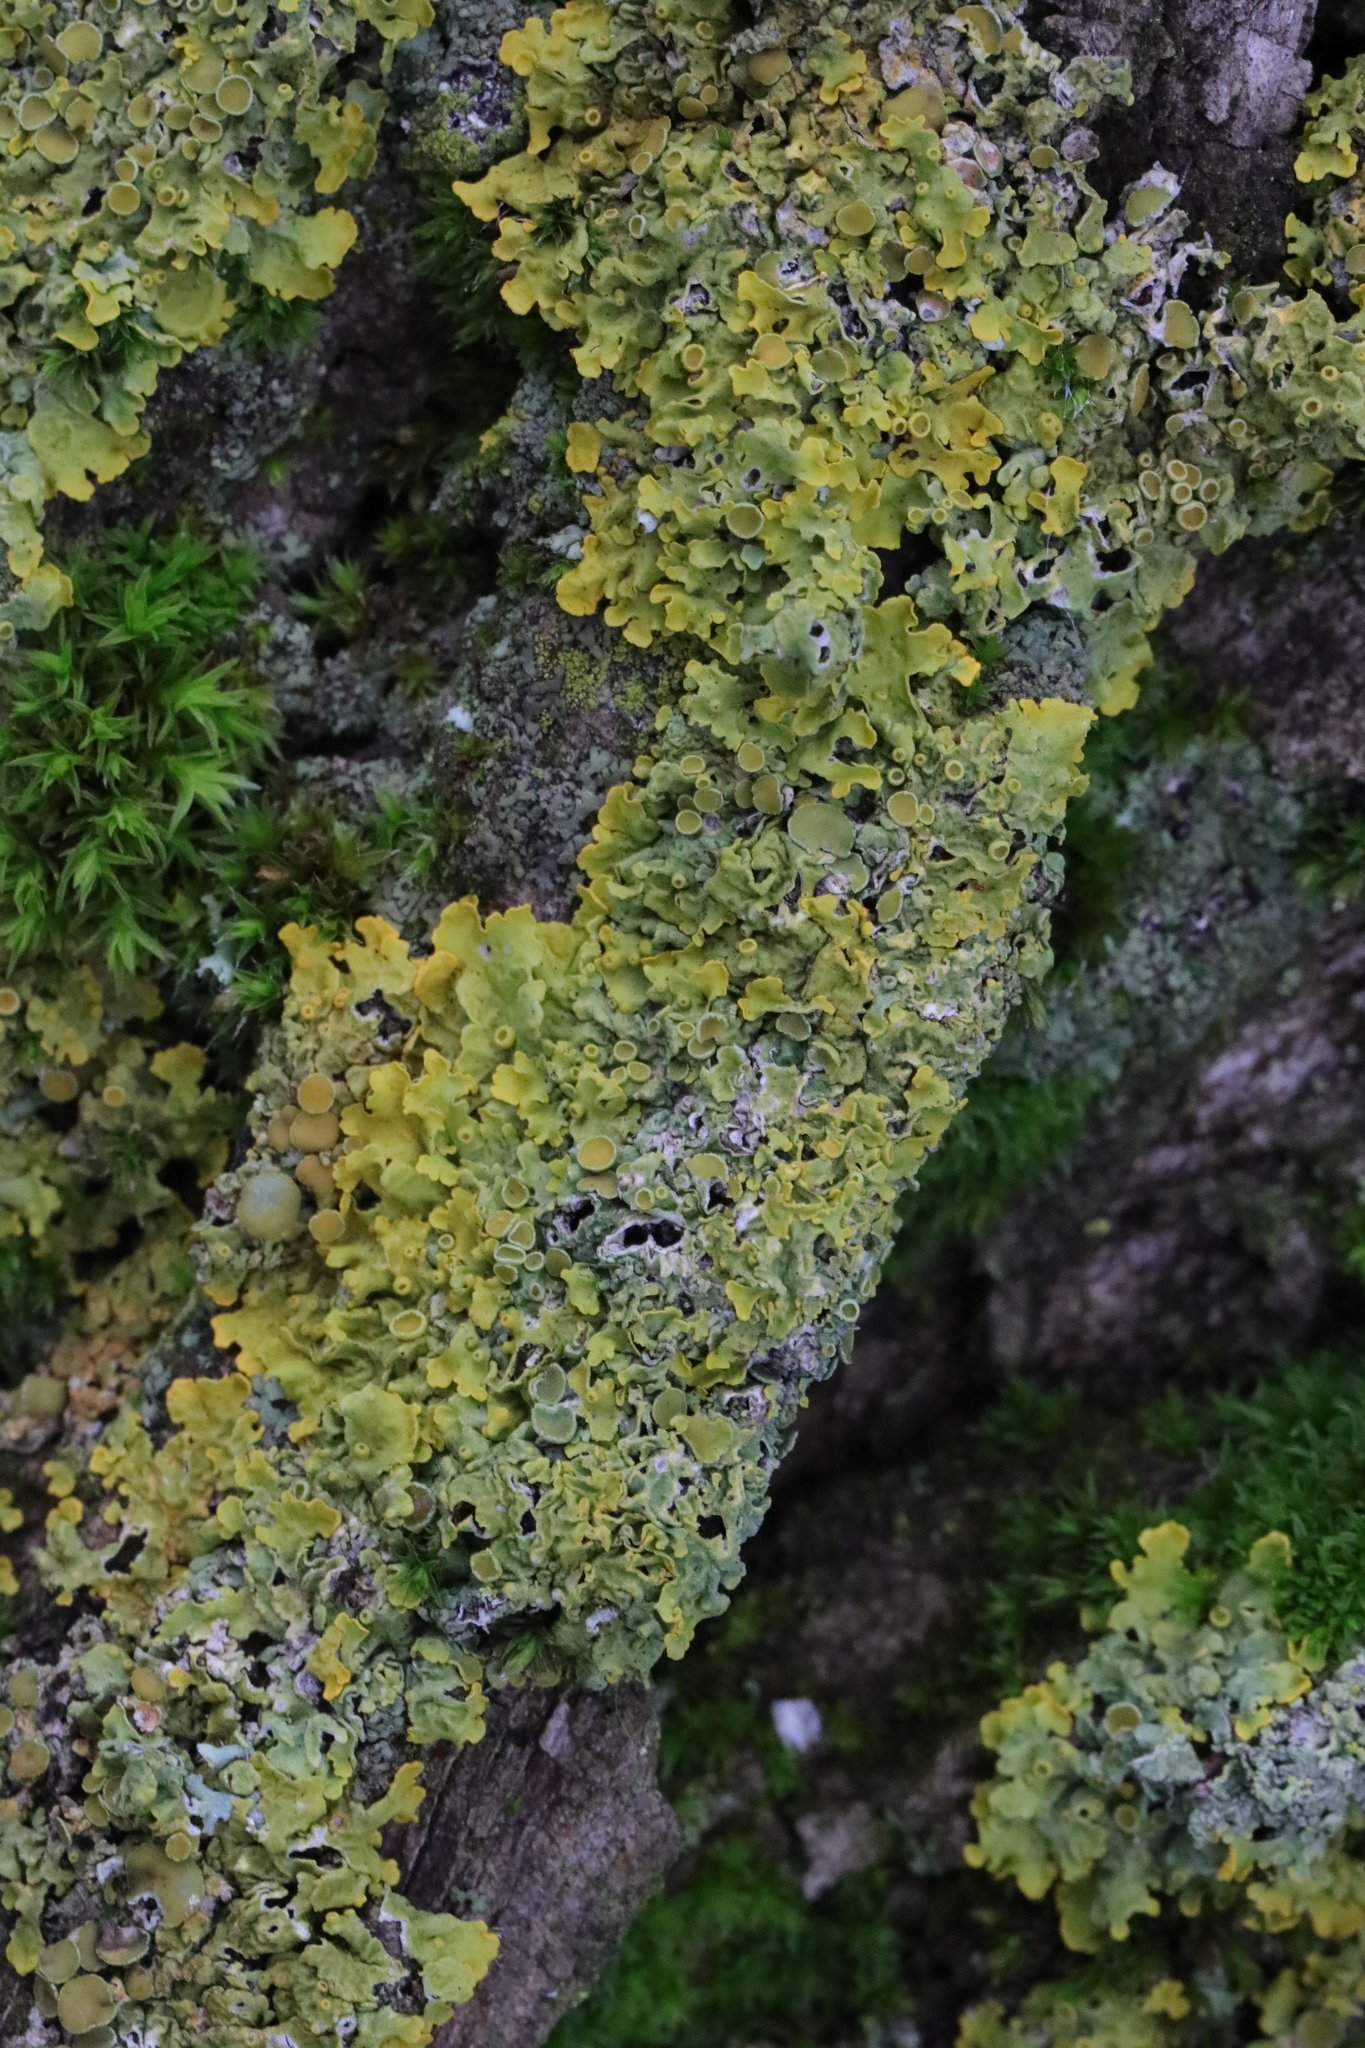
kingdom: Fungi
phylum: Ascomycota
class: Lecanoromycetes
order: Teloschistales
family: Teloschistaceae
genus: Xanthoria
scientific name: Xanthoria parietina
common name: Common orange lichen
